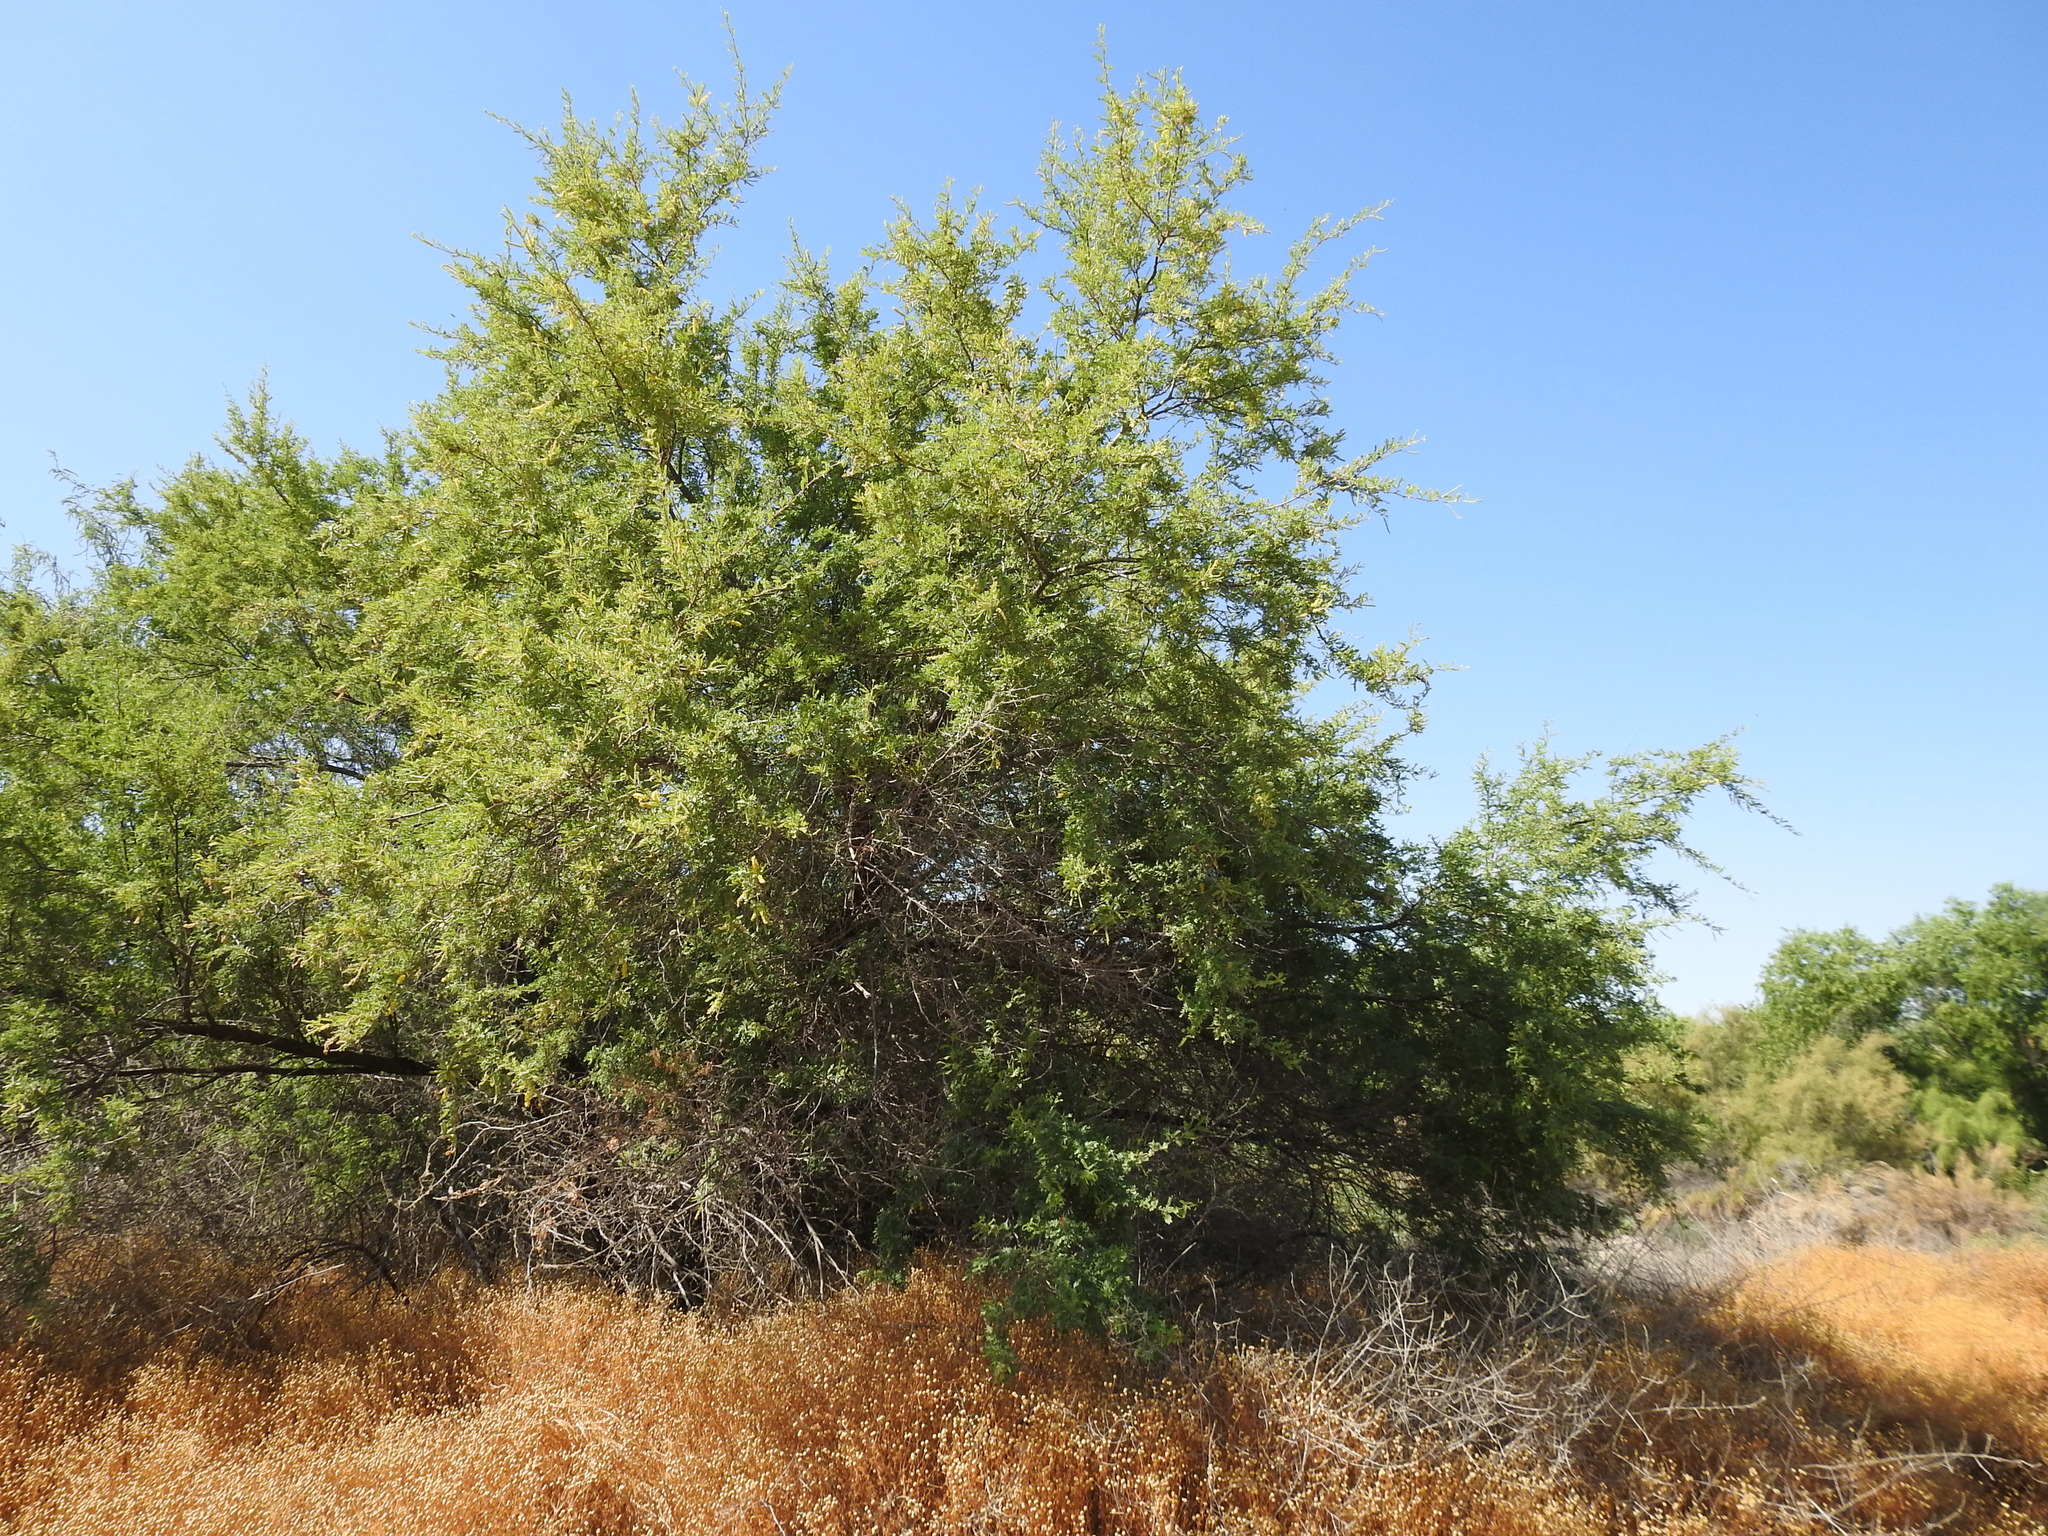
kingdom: Plantae
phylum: Tracheophyta
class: Magnoliopsida
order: Fabales
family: Fabaceae
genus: Prosopis
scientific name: Prosopis pubescens
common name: Screw-bean
